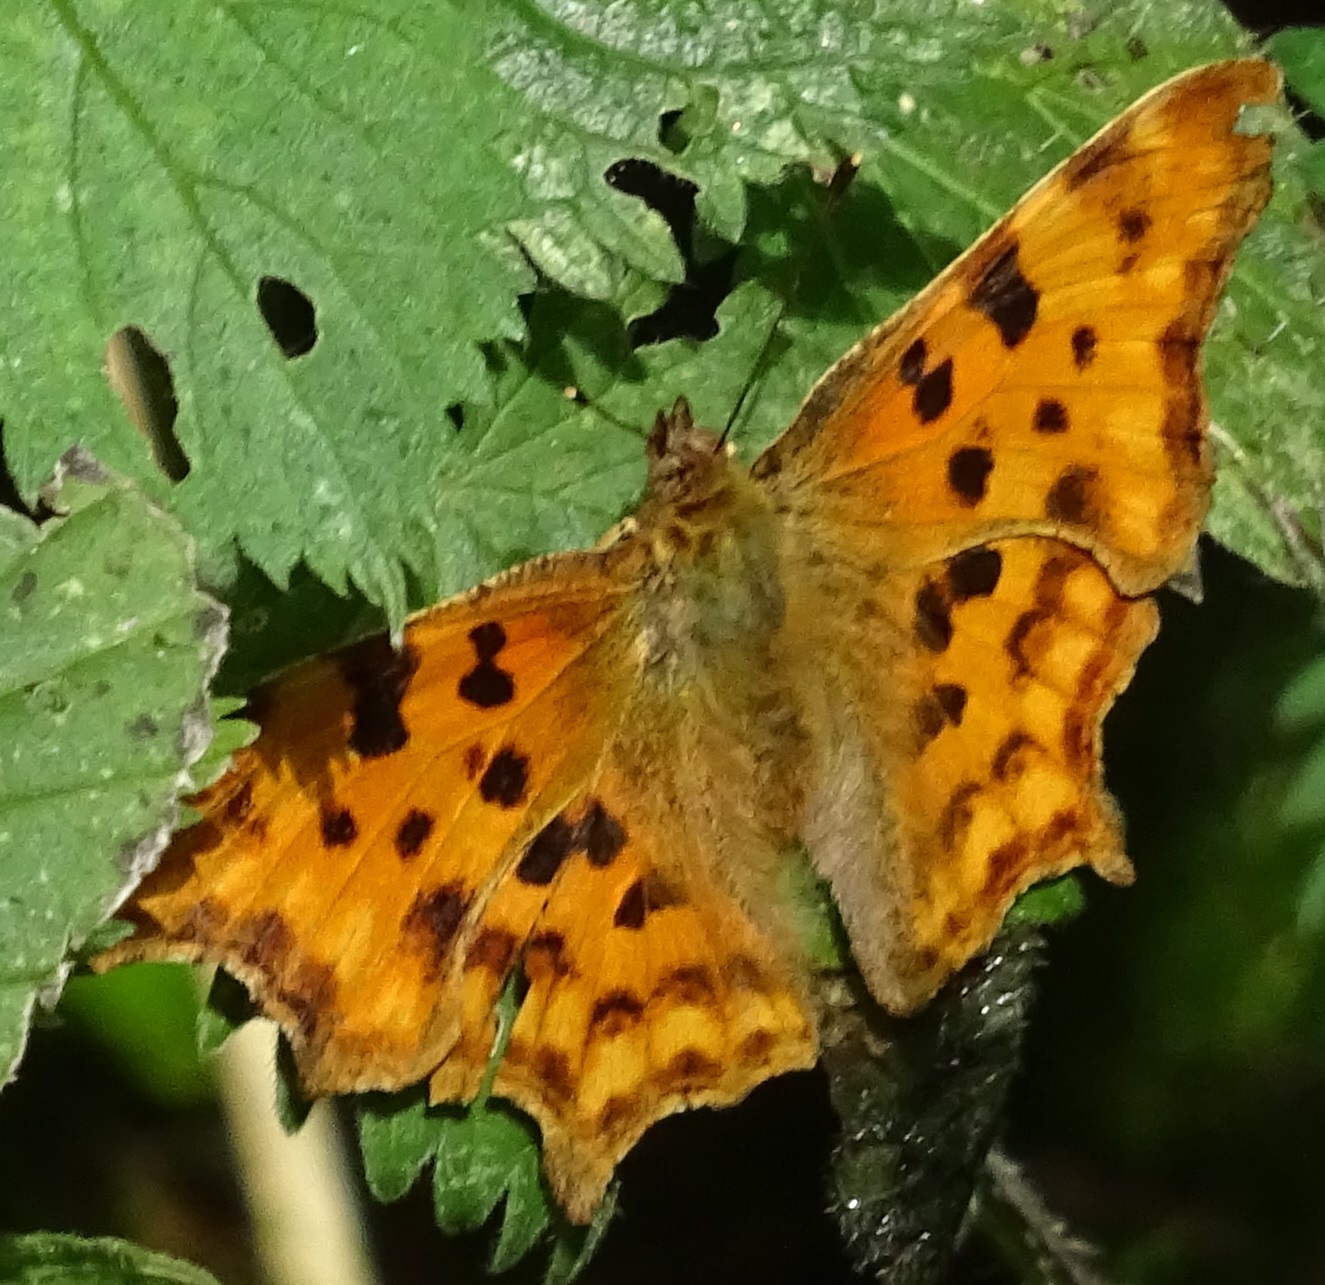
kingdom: Animalia
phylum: Arthropoda
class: Insecta
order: Lepidoptera
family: Nymphalidae
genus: Polygonia
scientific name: Polygonia c-album
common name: Comma
